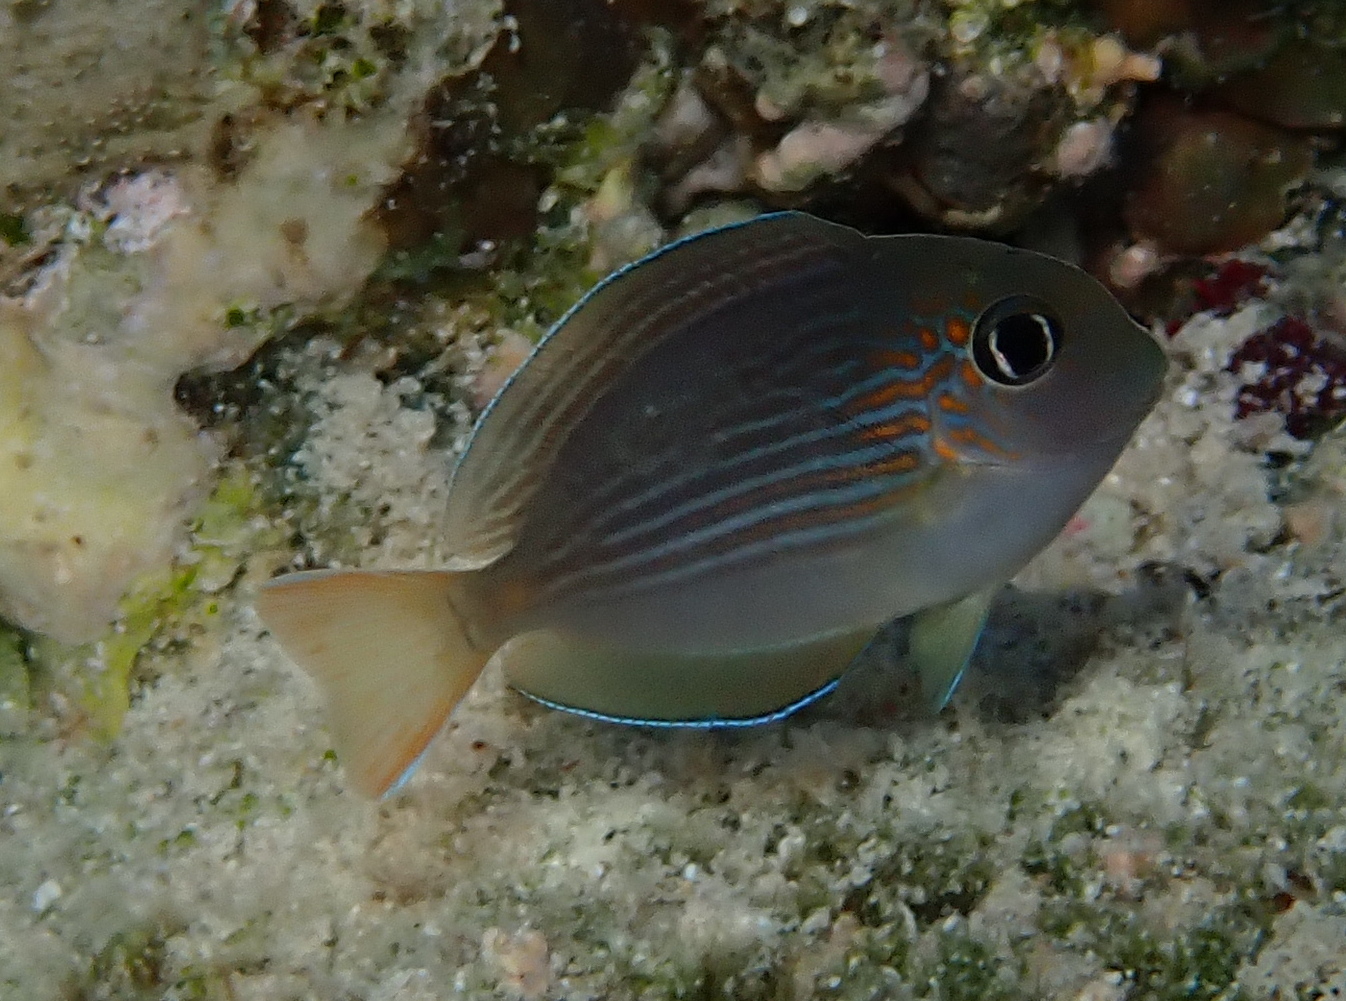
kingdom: Animalia
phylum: Chordata
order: Perciformes
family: Acanthuridae
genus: Acanthurus
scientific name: Acanthurus sohal
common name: Red sea surgeonfish
